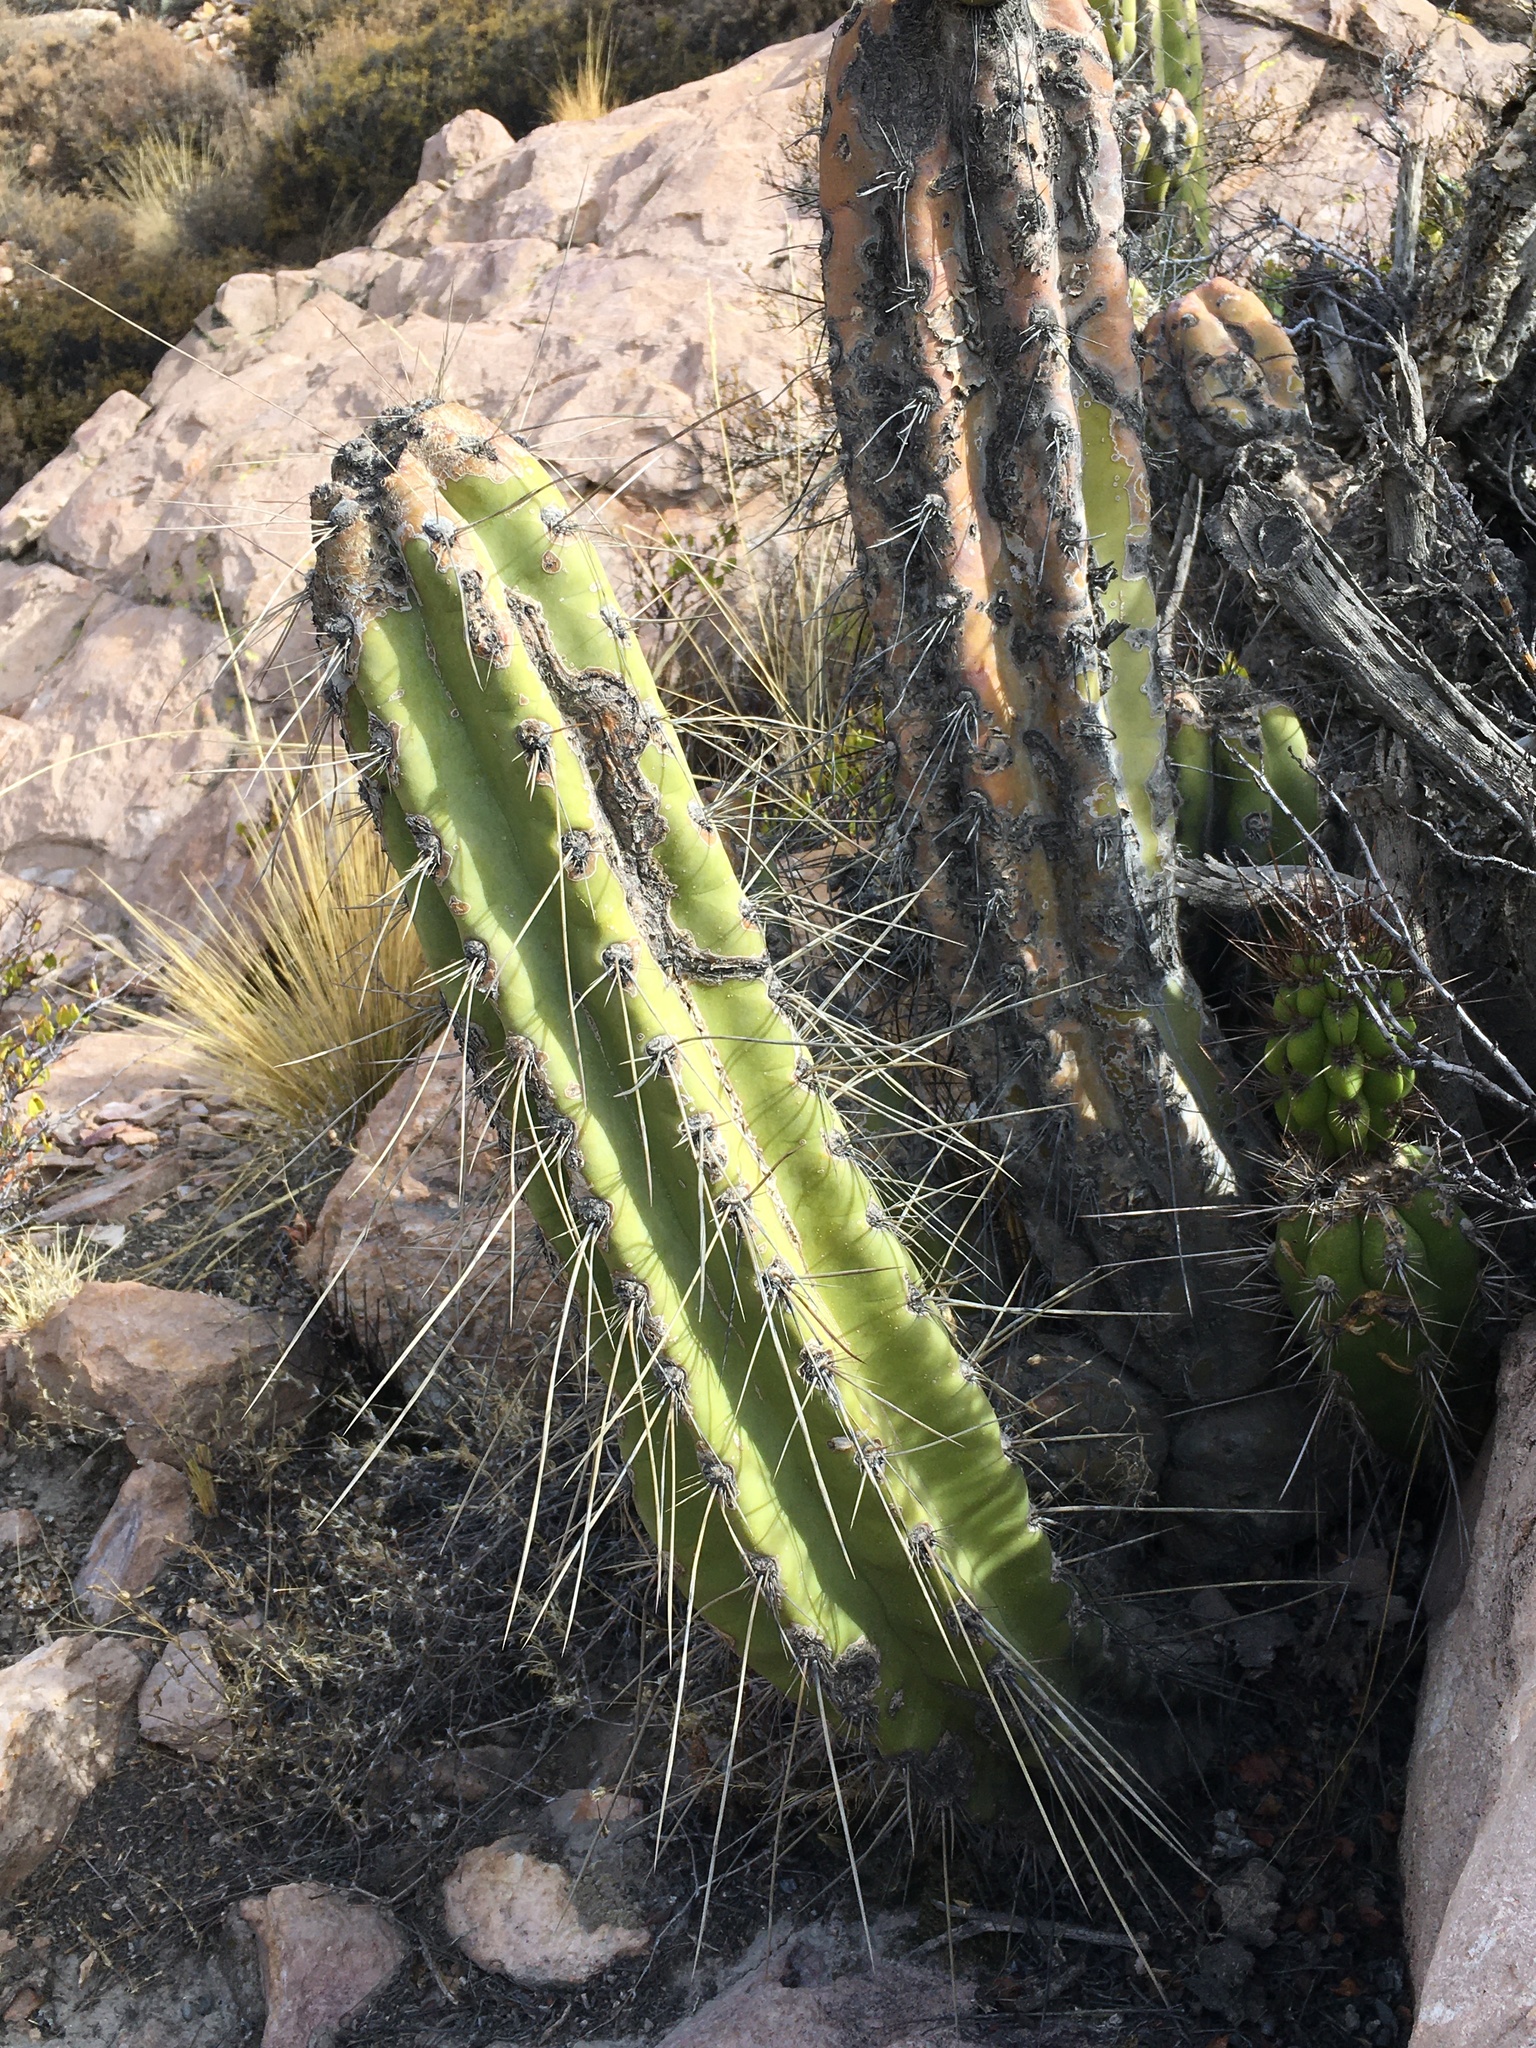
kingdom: Plantae
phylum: Tracheophyta
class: Magnoliopsida
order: Caryophyllales
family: Cactaceae
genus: Corryocactus
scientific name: Corryocactus brevistylus
